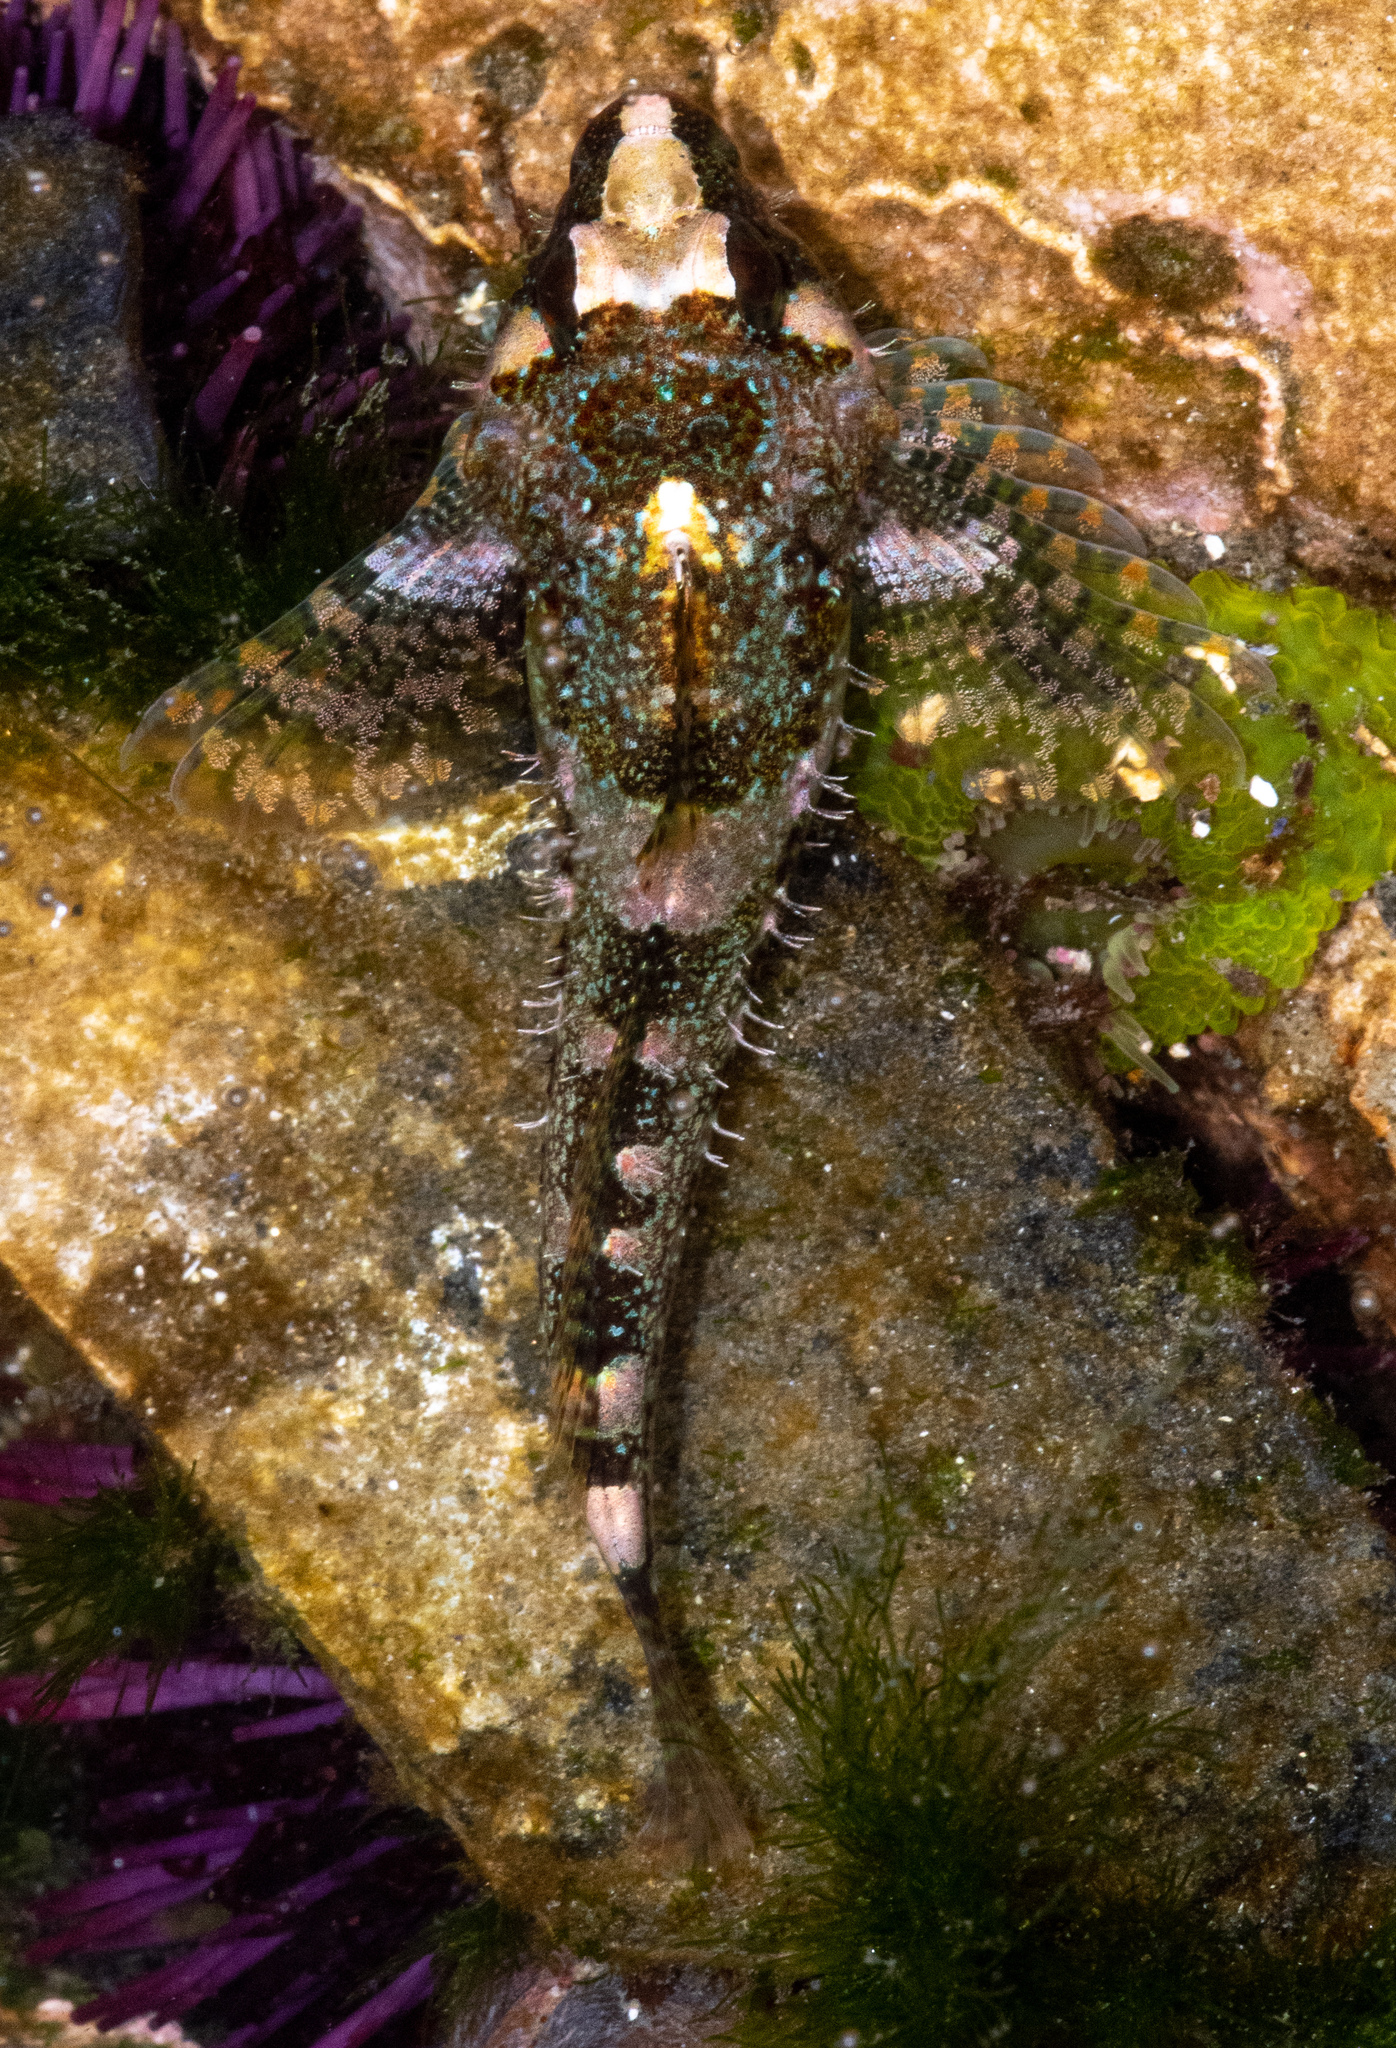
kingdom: Animalia
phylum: Chordata
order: Scorpaeniformes
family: Cottidae
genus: Oligocottus
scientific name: Oligocottus rubellio
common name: Rosy sculpin
